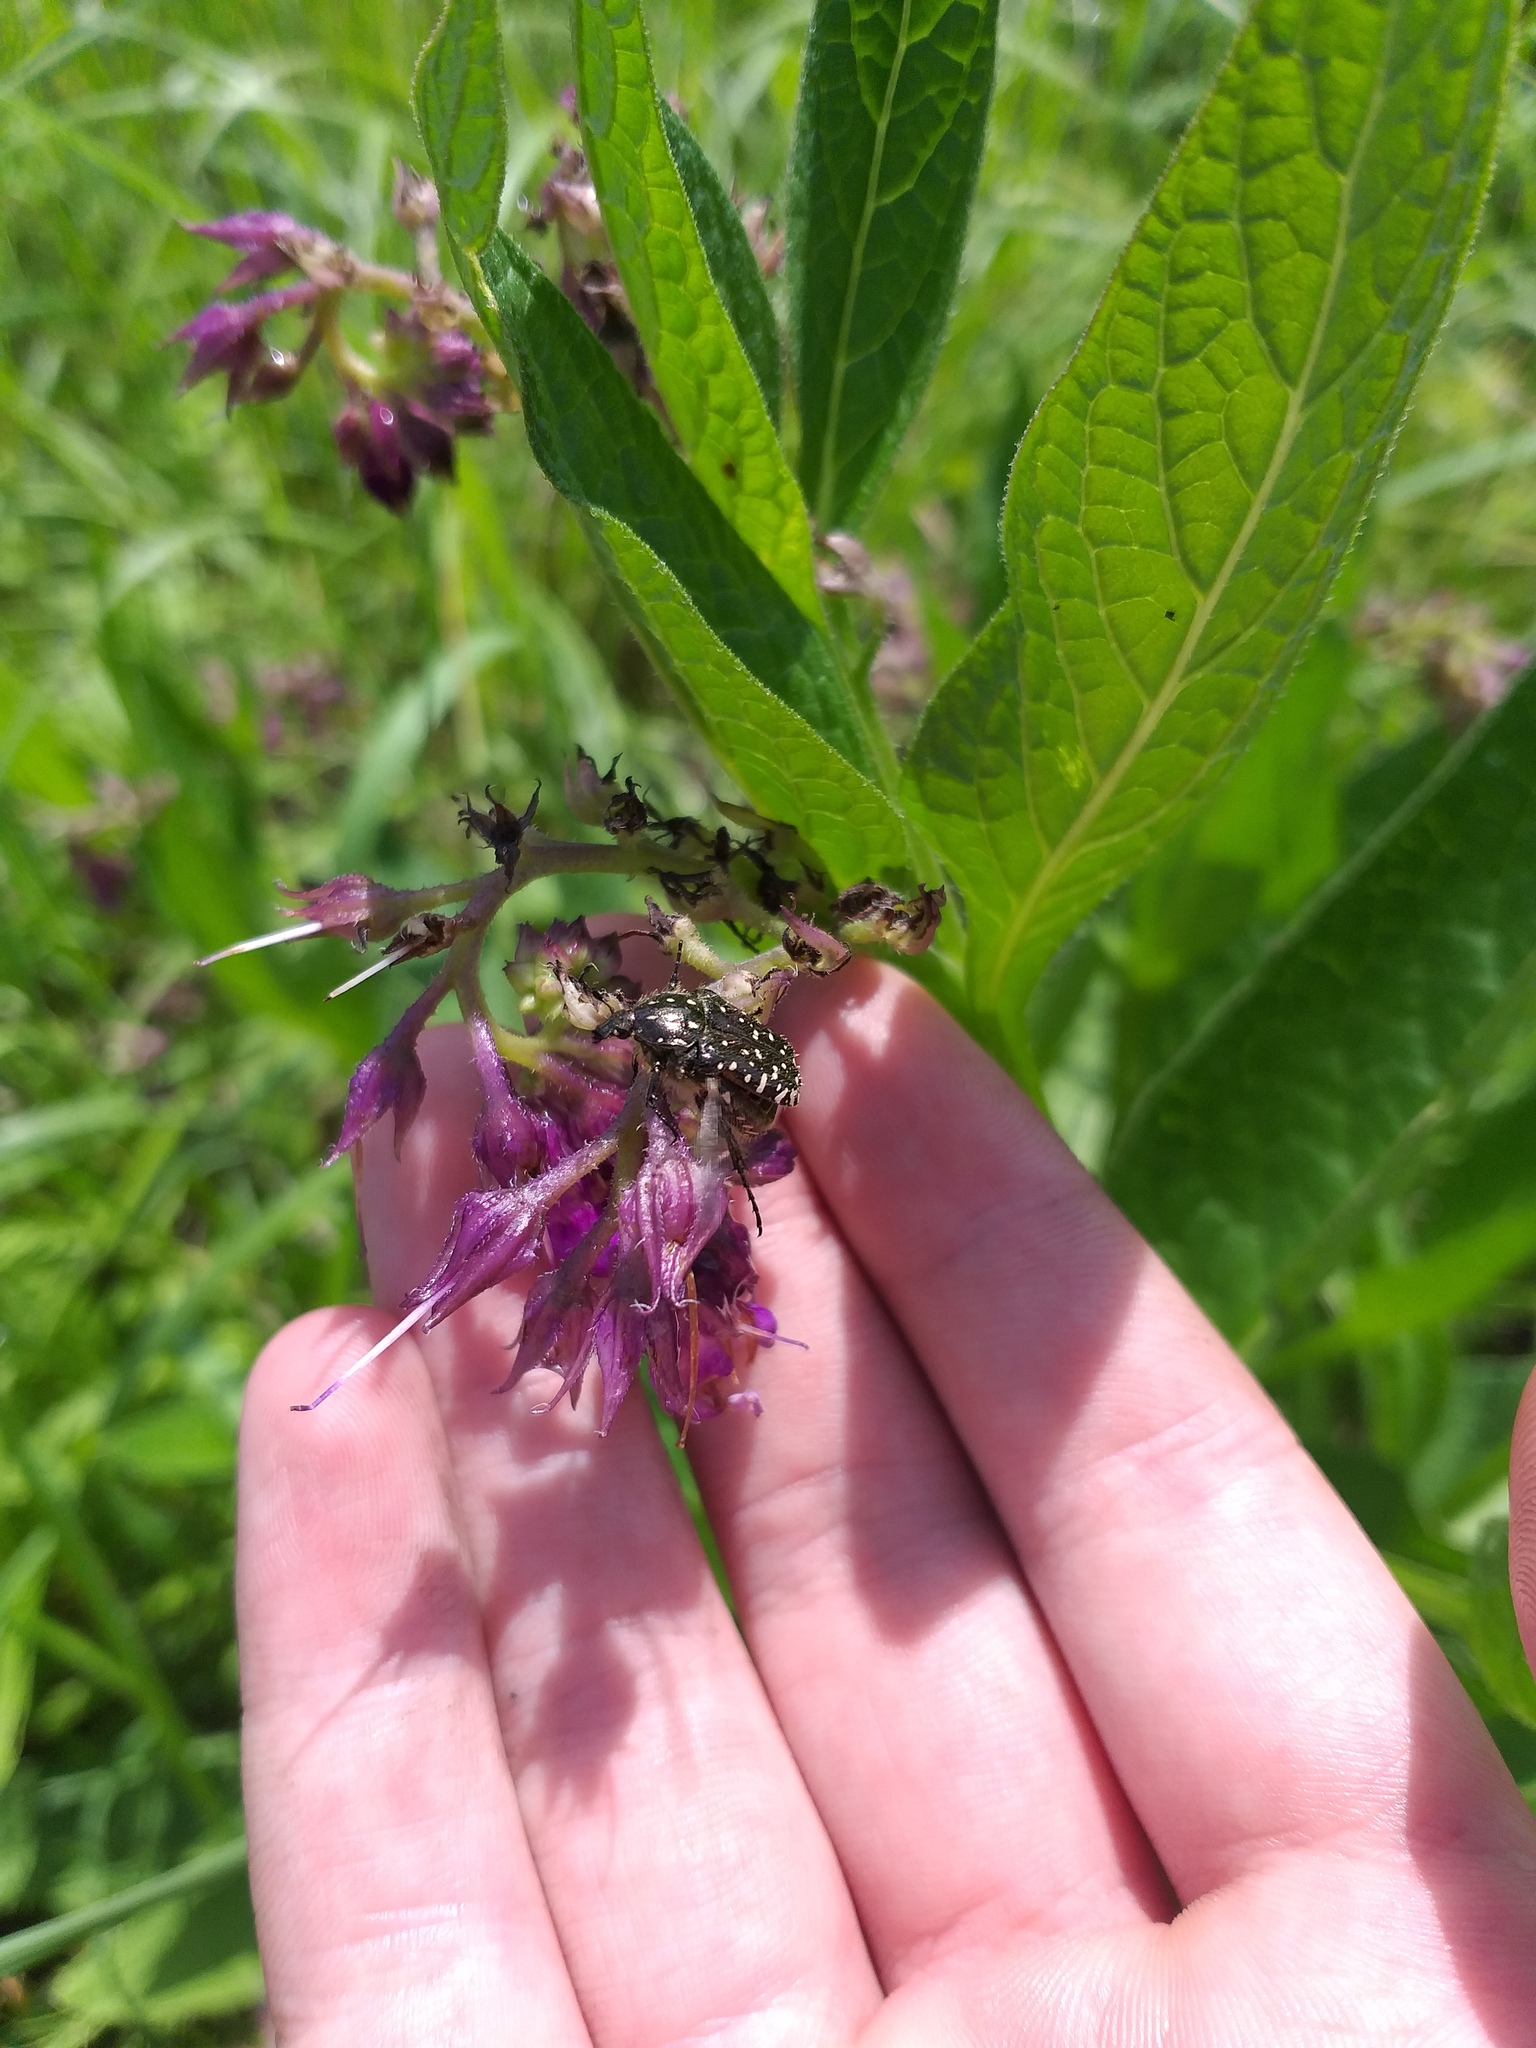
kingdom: Plantae
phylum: Tracheophyta
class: Magnoliopsida
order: Boraginales
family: Boraginaceae
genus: Symphytum
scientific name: Symphytum officinale
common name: Common comfrey
